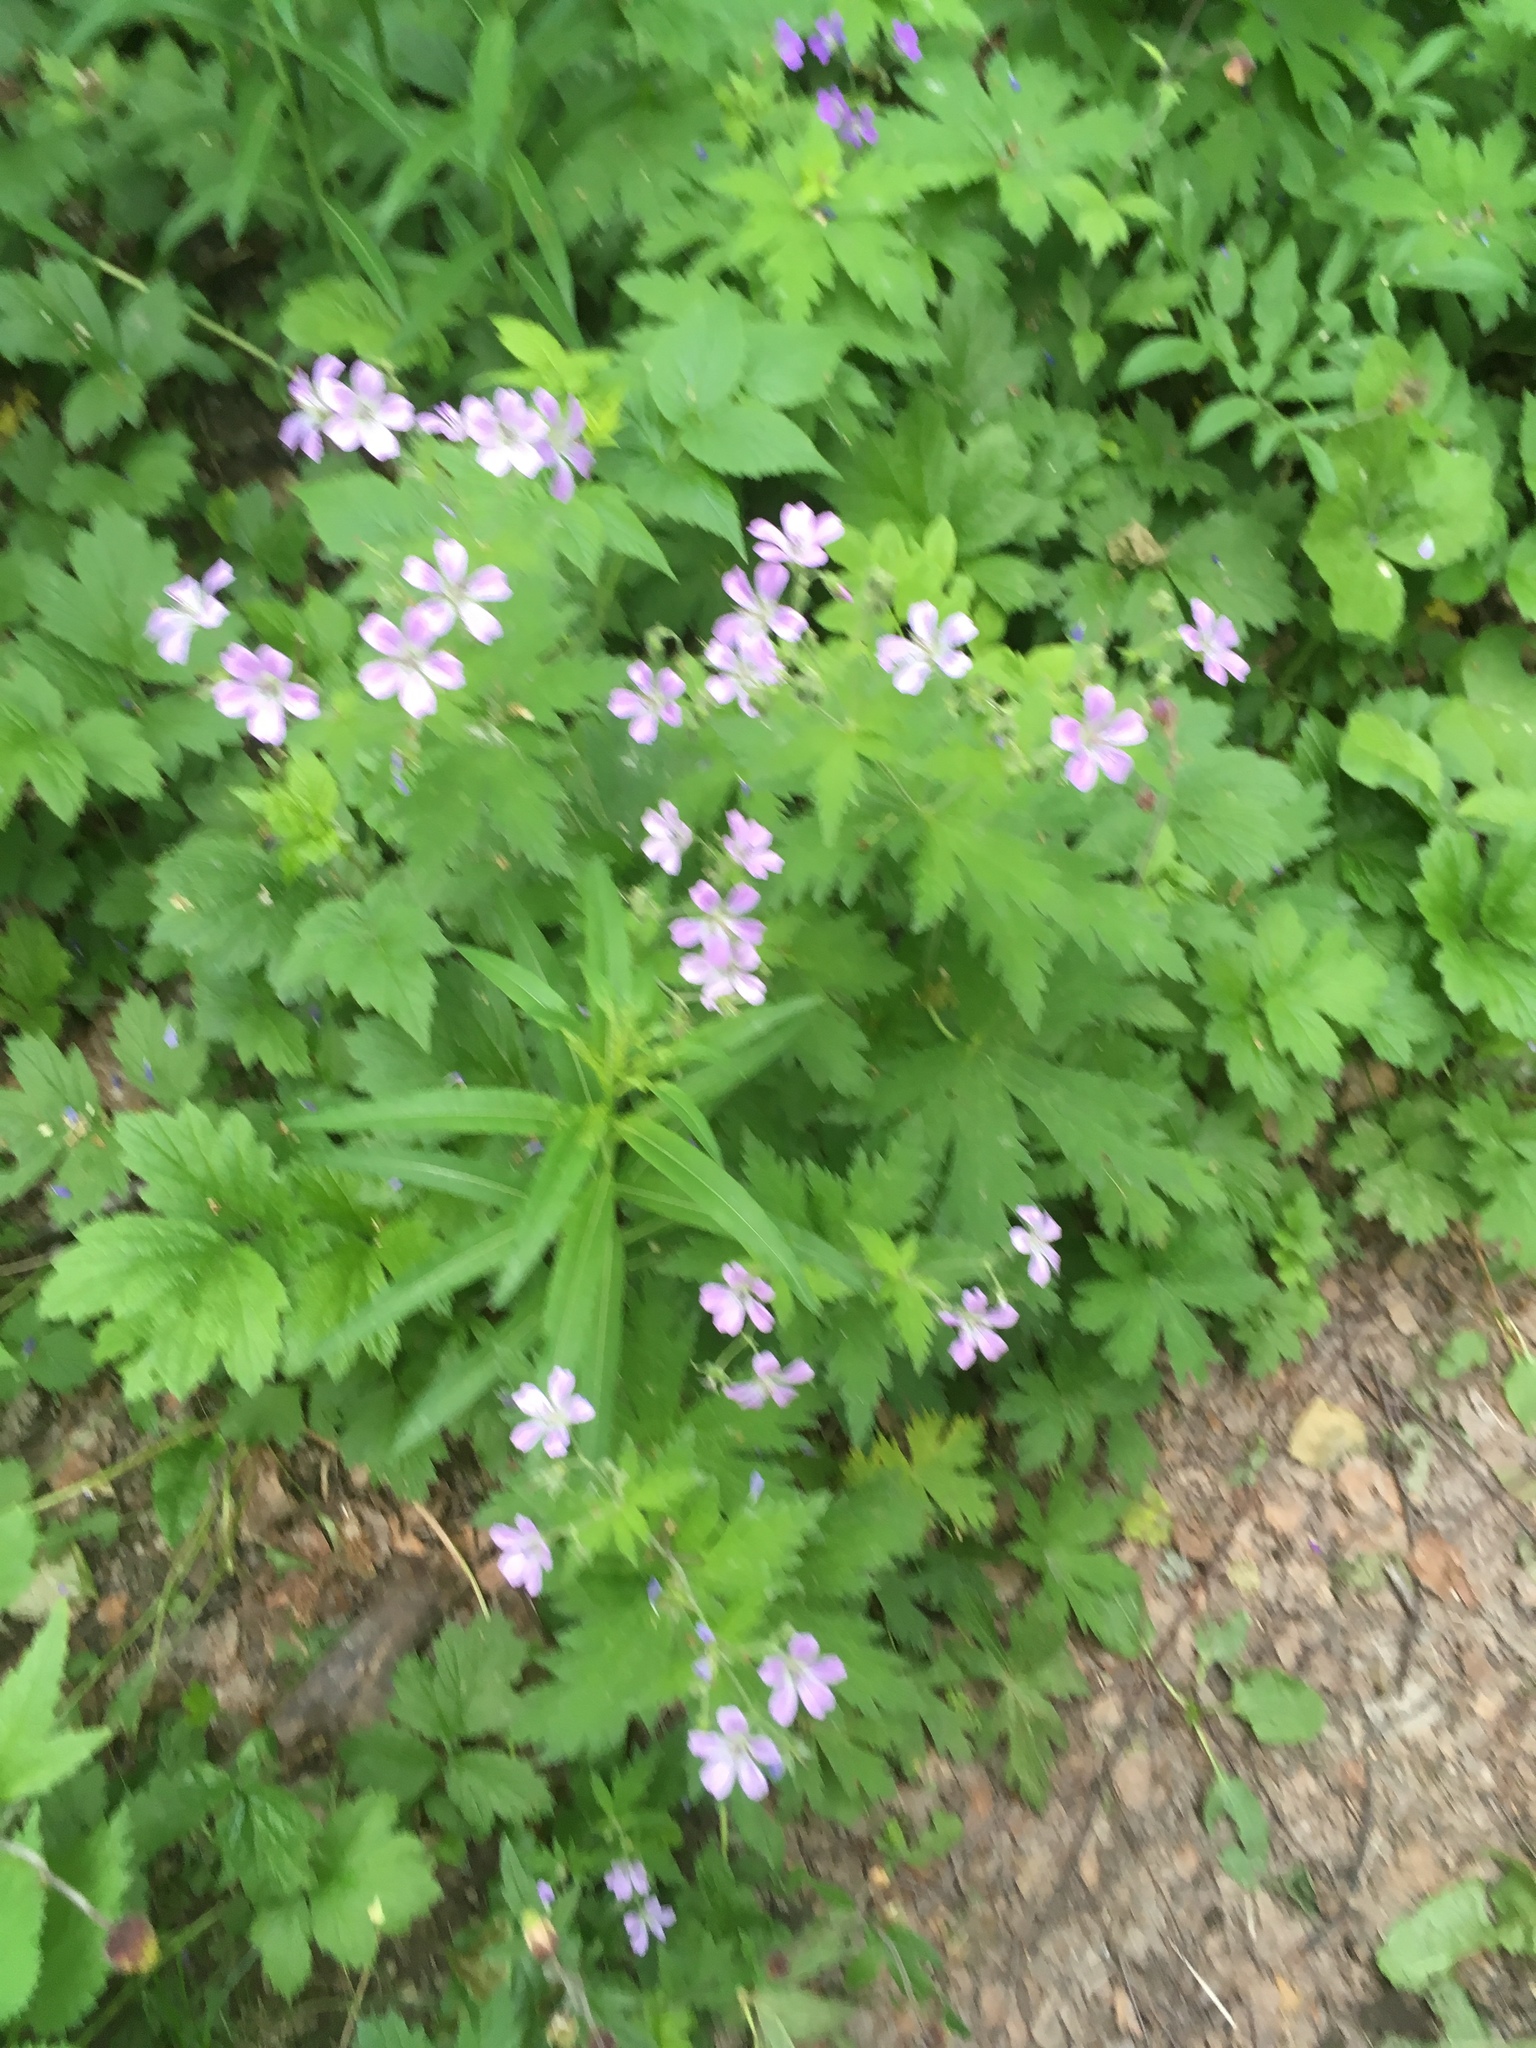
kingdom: Plantae
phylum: Tracheophyta
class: Magnoliopsida
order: Geraniales
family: Geraniaceae
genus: Geranium
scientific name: Geranium sylvaticum
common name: Wood crane's-bill
